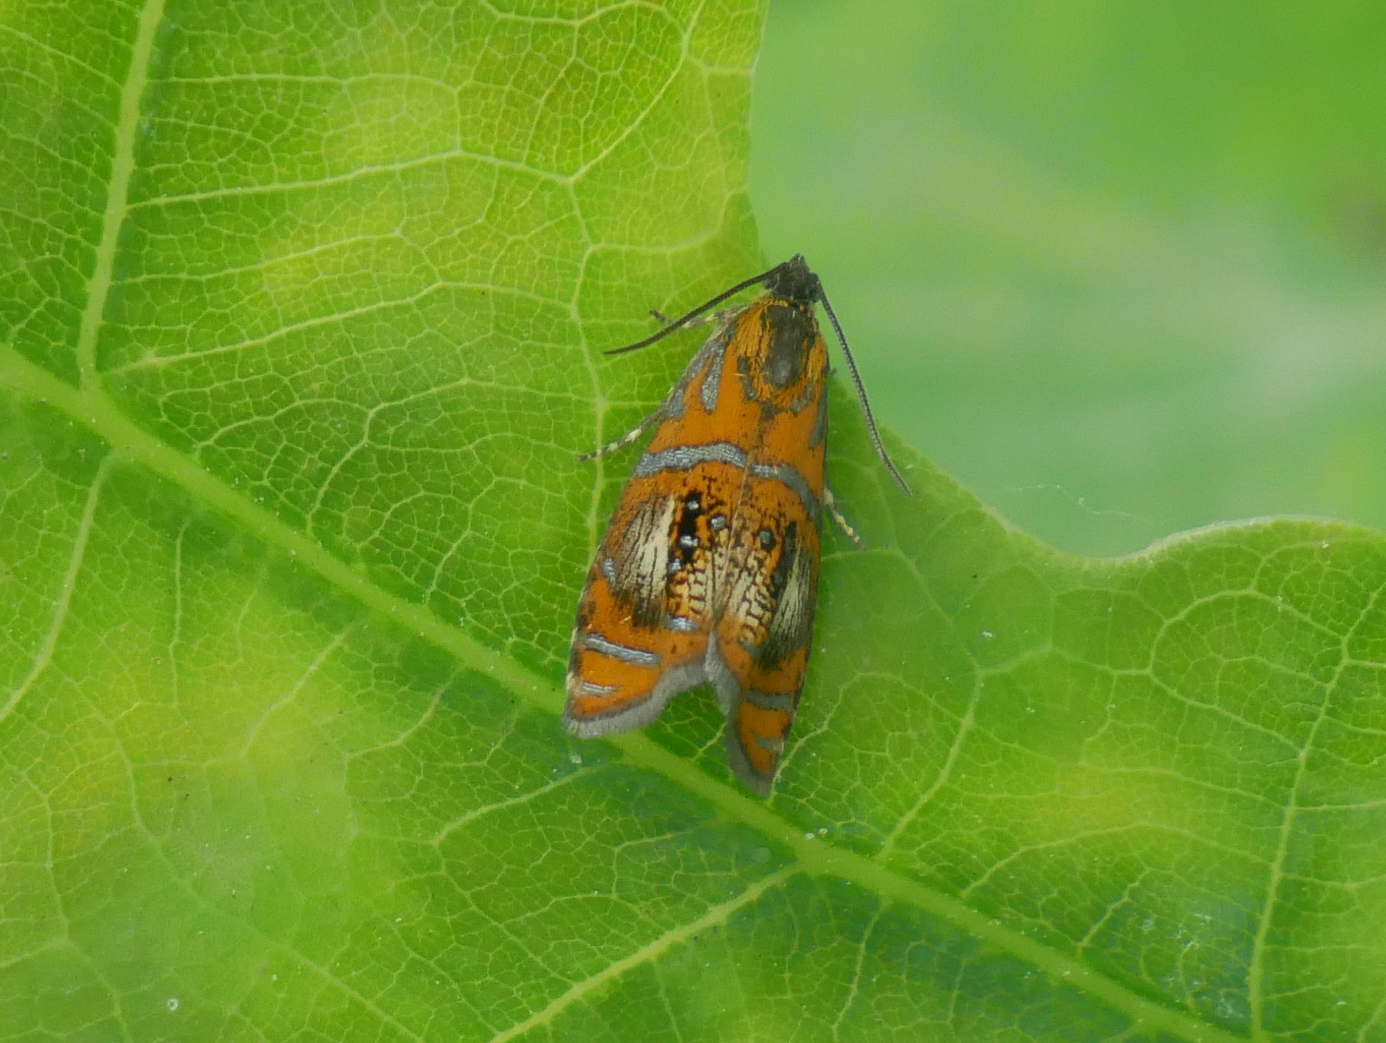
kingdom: Animalia
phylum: Arthropoda
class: Insecta
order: Lepidoptera
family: Tortricidae
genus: Olethreutes
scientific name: Olethreutes arcuella
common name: Arched marble
